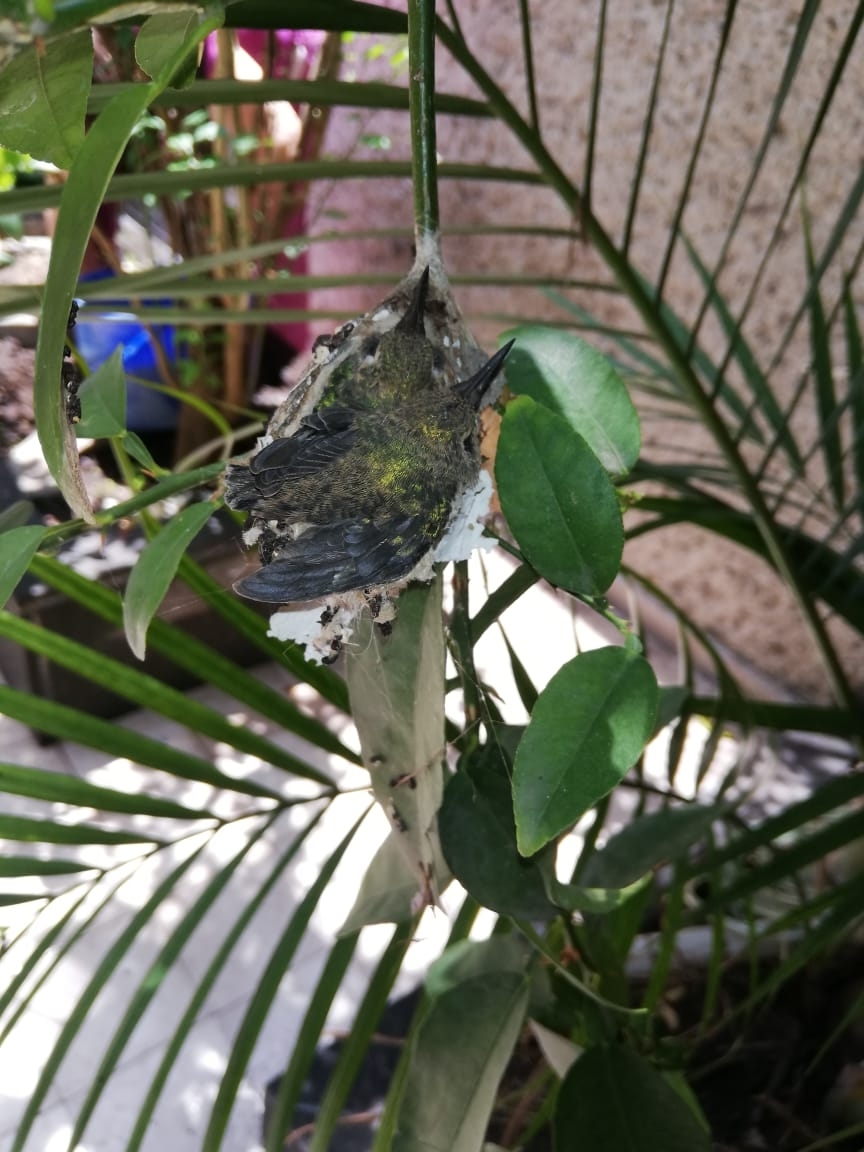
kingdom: Animalia
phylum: Chordata
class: Aves
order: Apodiformes
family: Trochilidae
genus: Cynanthus
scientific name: Cynanthus latirostris
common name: Broad-billed hummingbird
